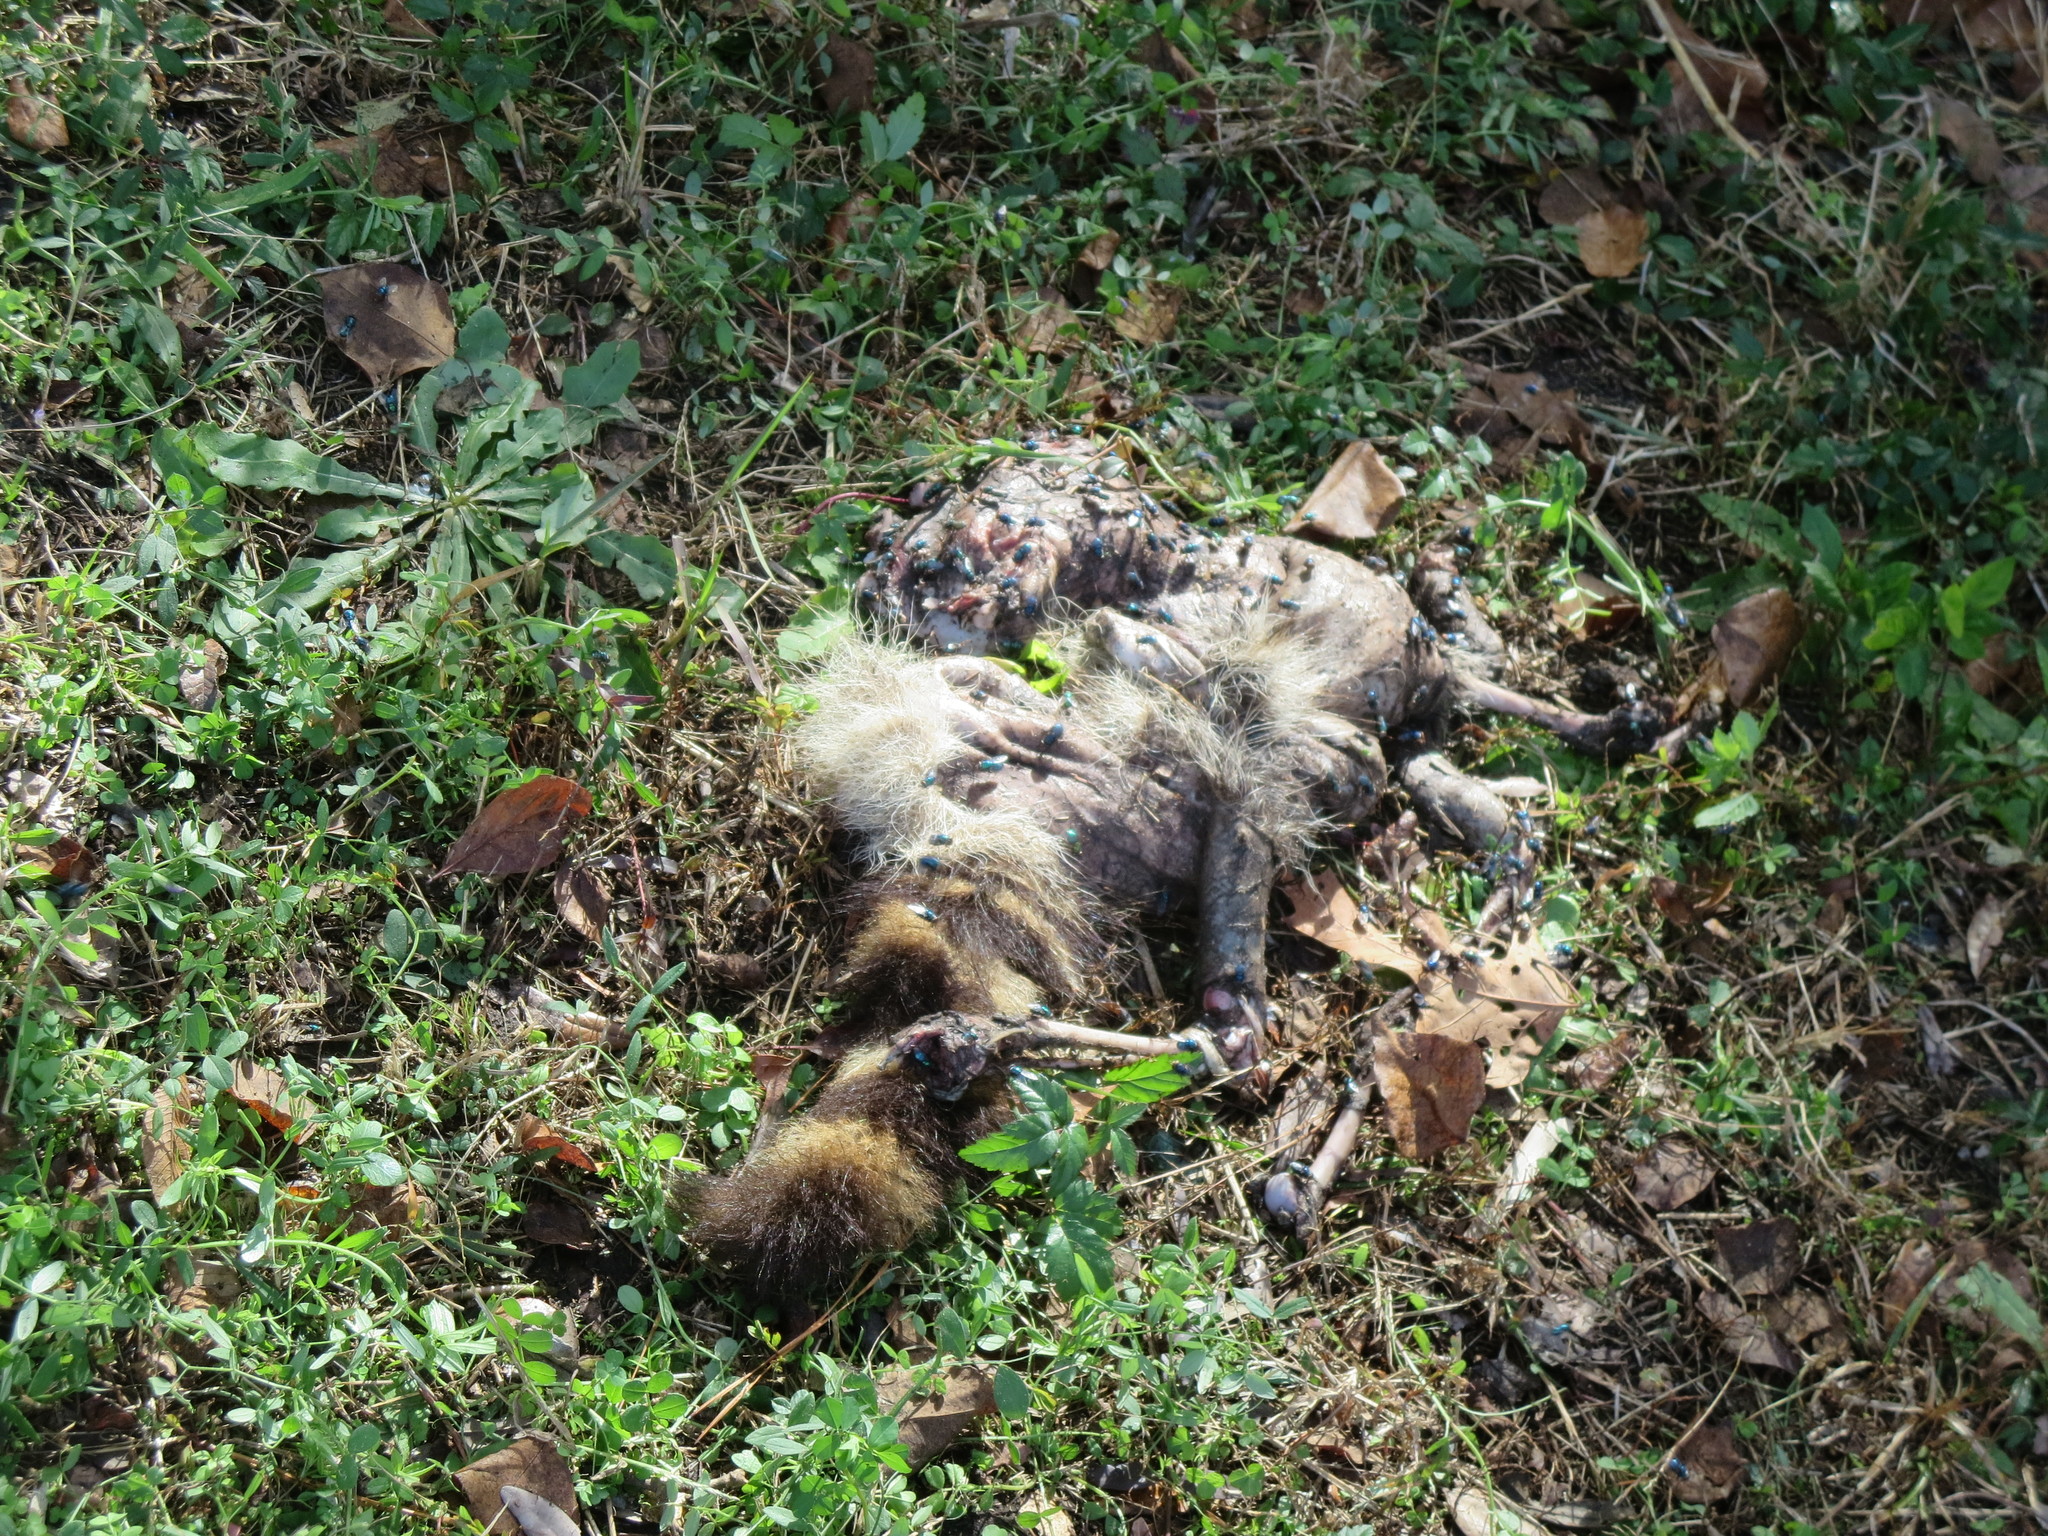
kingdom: Animalia
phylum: Chordata
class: Mammalia
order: Carnivora
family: Procyonidae
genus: Procyon
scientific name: Procyon lotor
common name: Raccoon
